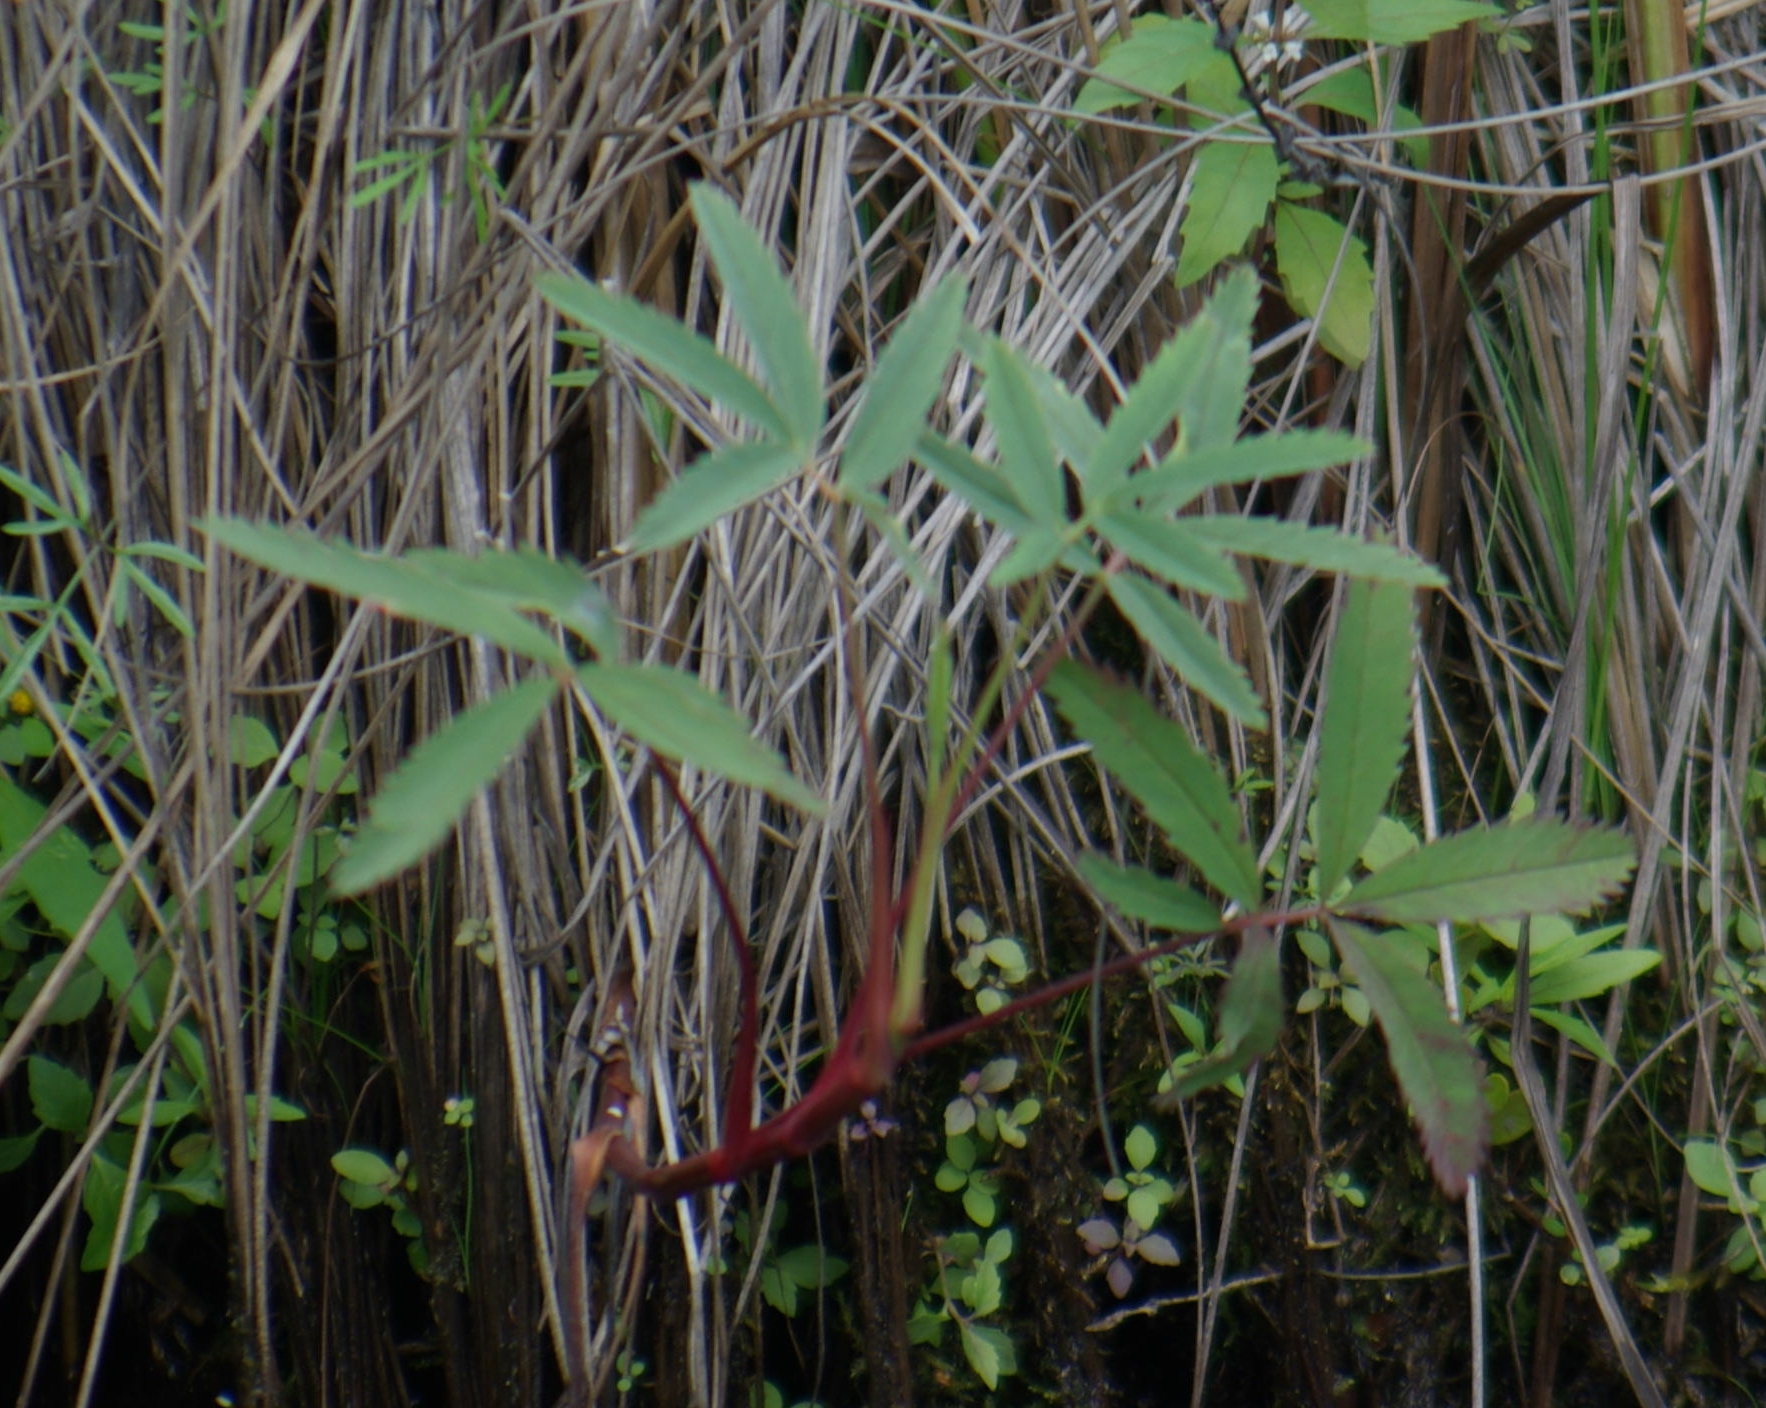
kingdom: Plantae
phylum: Tracheophyta
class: Magnoliopsida
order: Rosales
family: Rosaceae
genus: Comarum
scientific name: Comarum palustre
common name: Marsh cinquefoil
